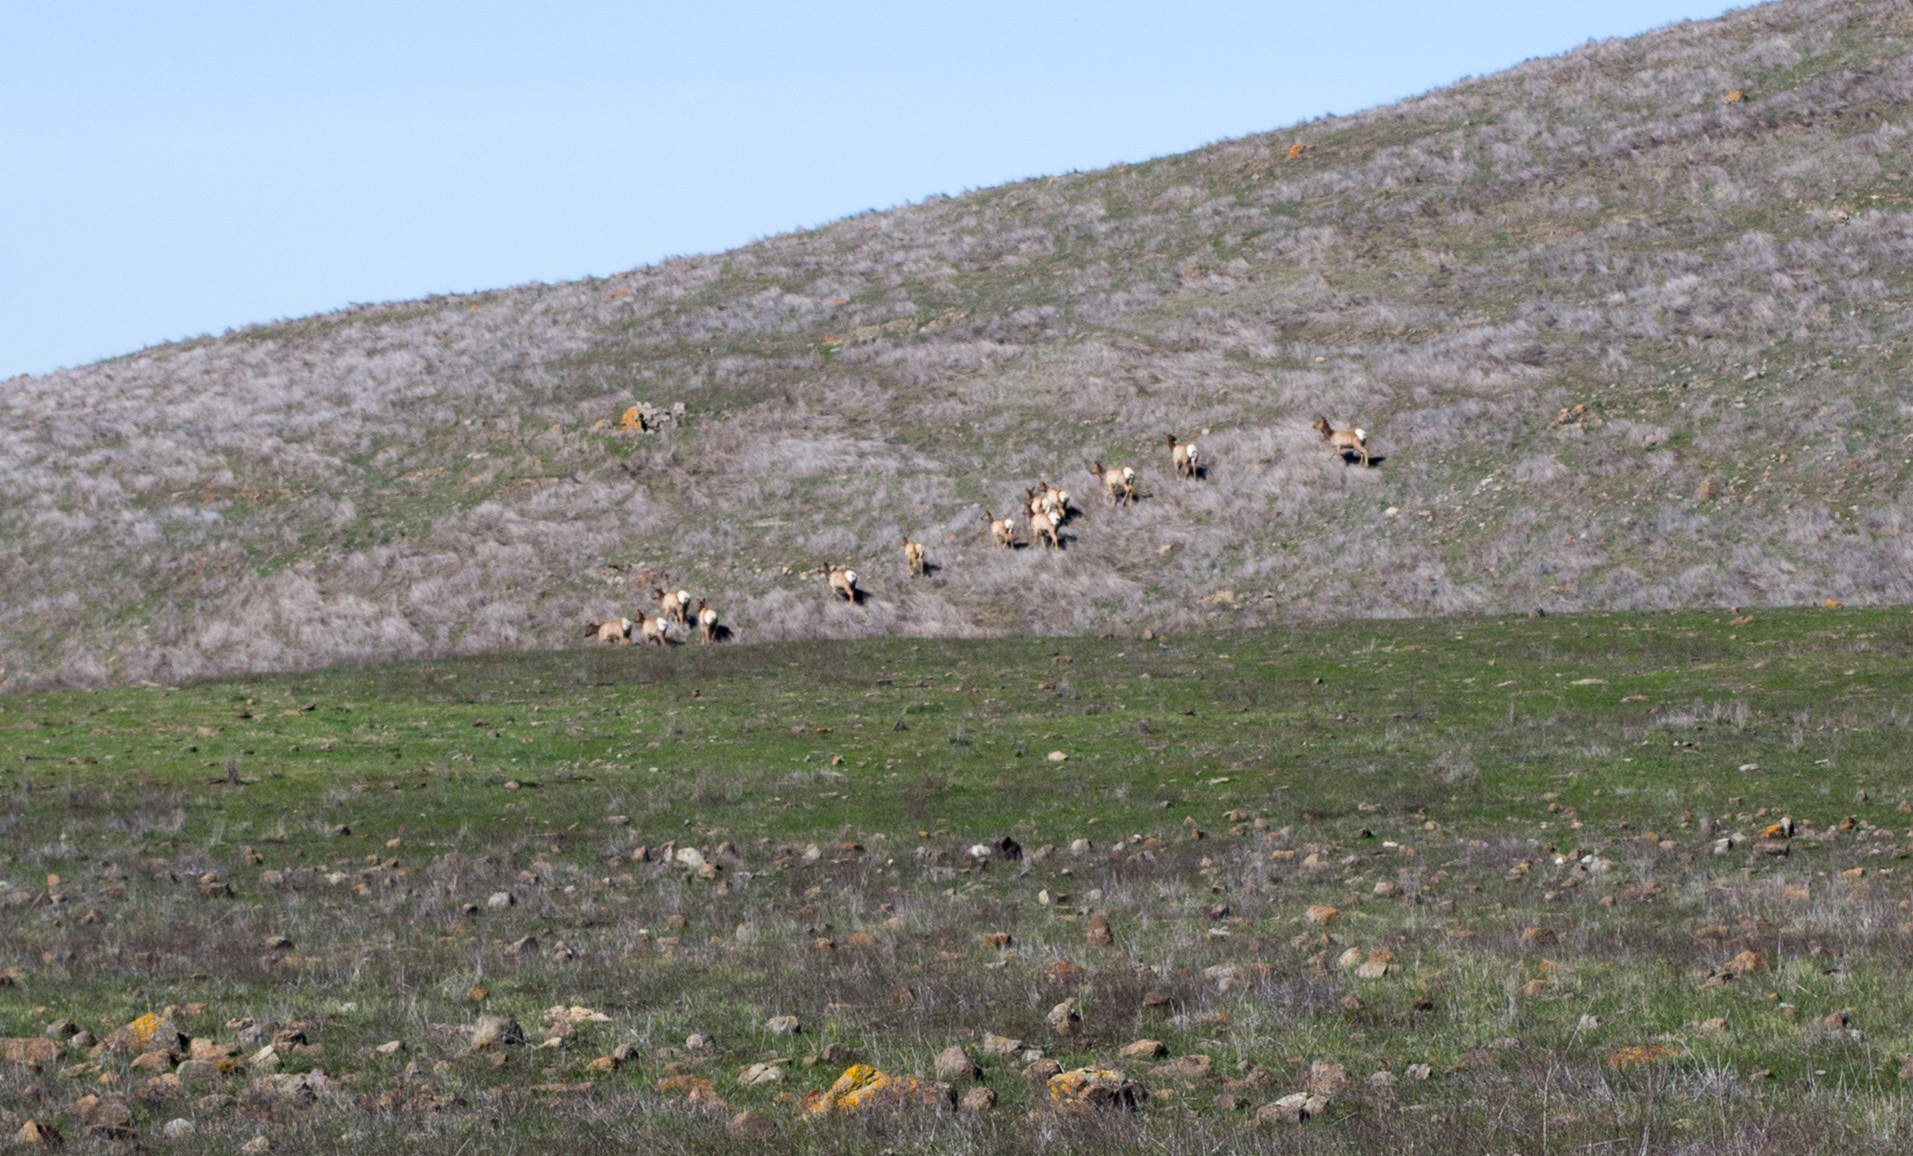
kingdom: Animalia
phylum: Chordata
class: Mammalia
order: Artiodactyla
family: Cervidae
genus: Cervus
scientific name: Cervus elaphus
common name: Red deer
